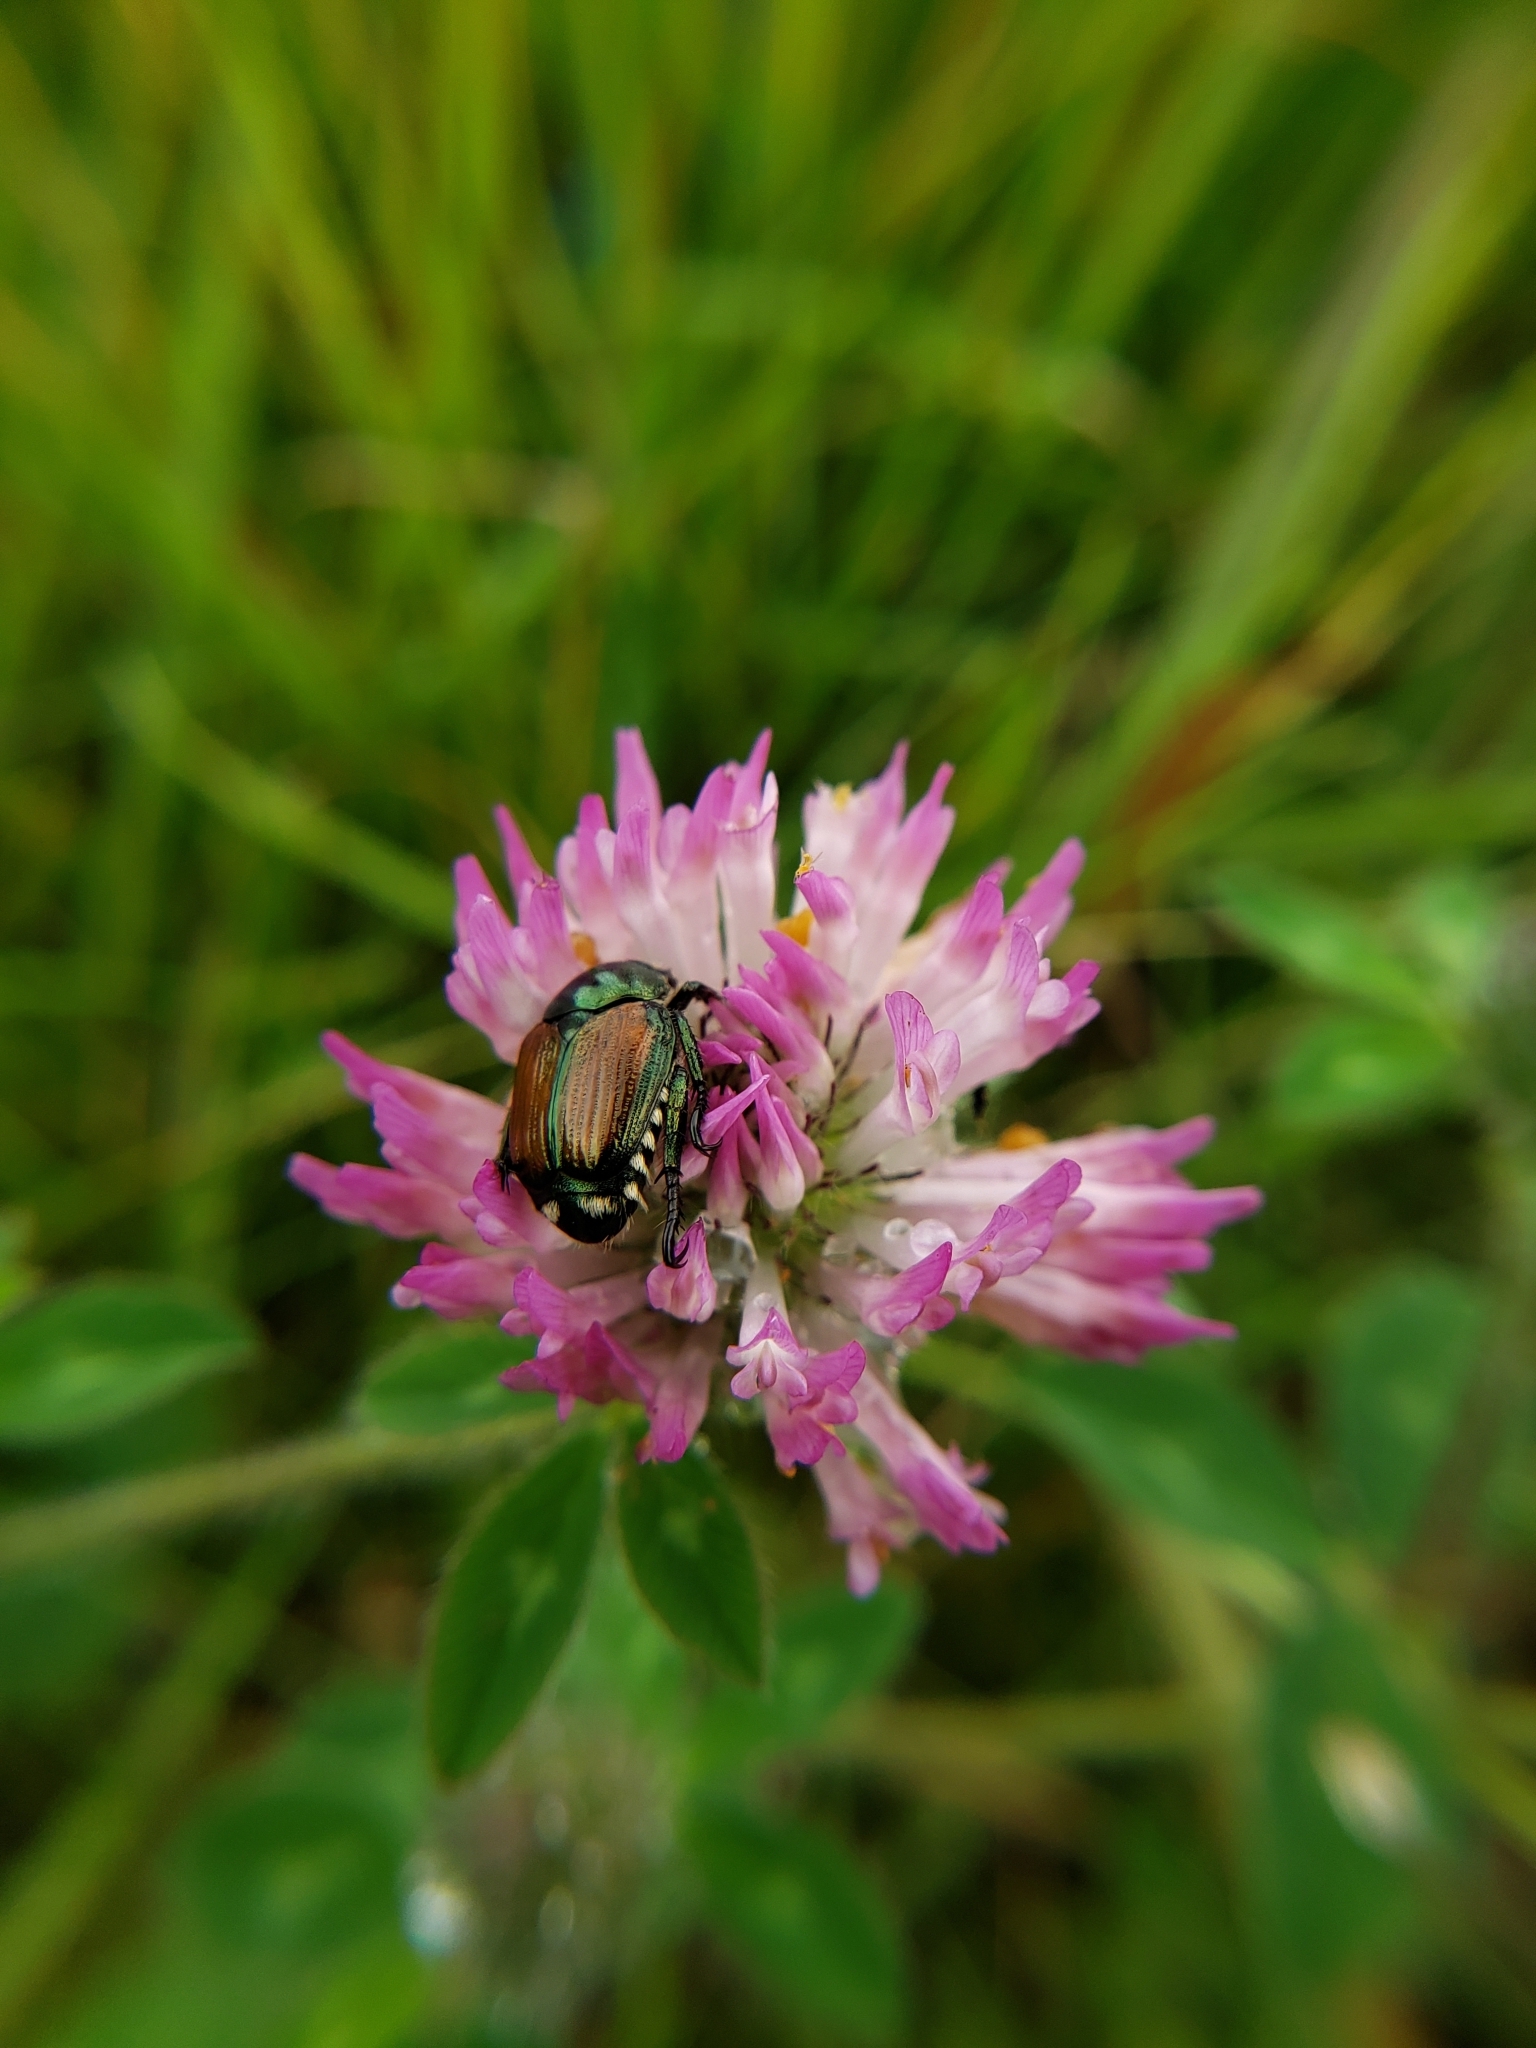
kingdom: Animalia
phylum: Arthropoda
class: Insecta
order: Coleoptera
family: Scarabaeidae
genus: Popillia
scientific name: Popillia japonica
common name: Japanese beetle
